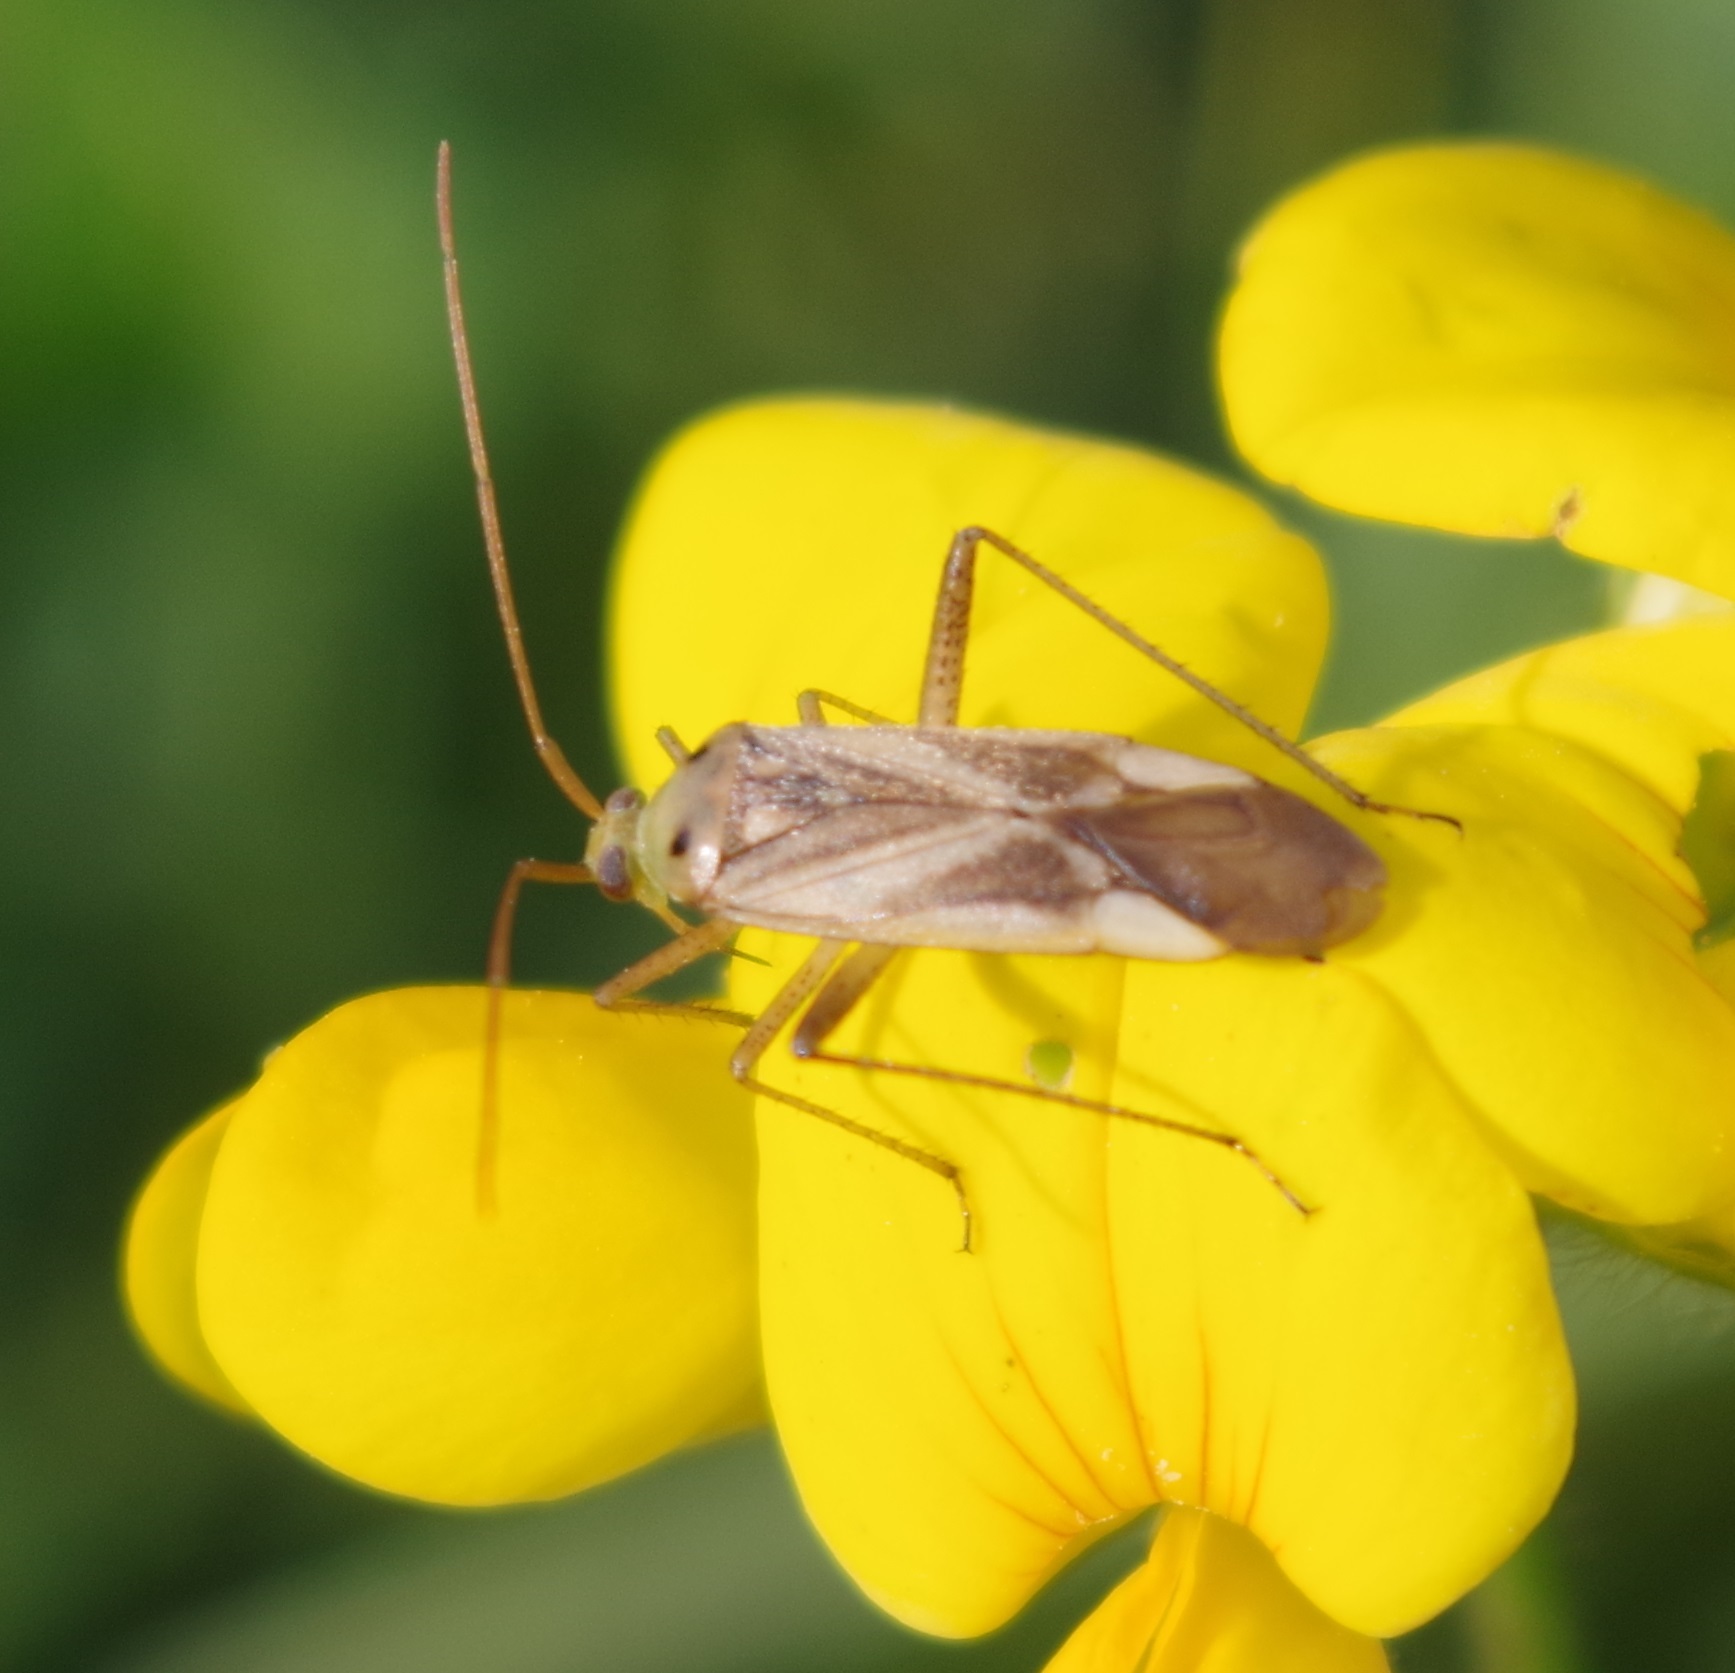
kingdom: Animalia
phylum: Arthropoda
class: Insecta
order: Hemiptera
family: Miridae
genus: Adelphocoris
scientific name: Adelphocoris lineolatus
